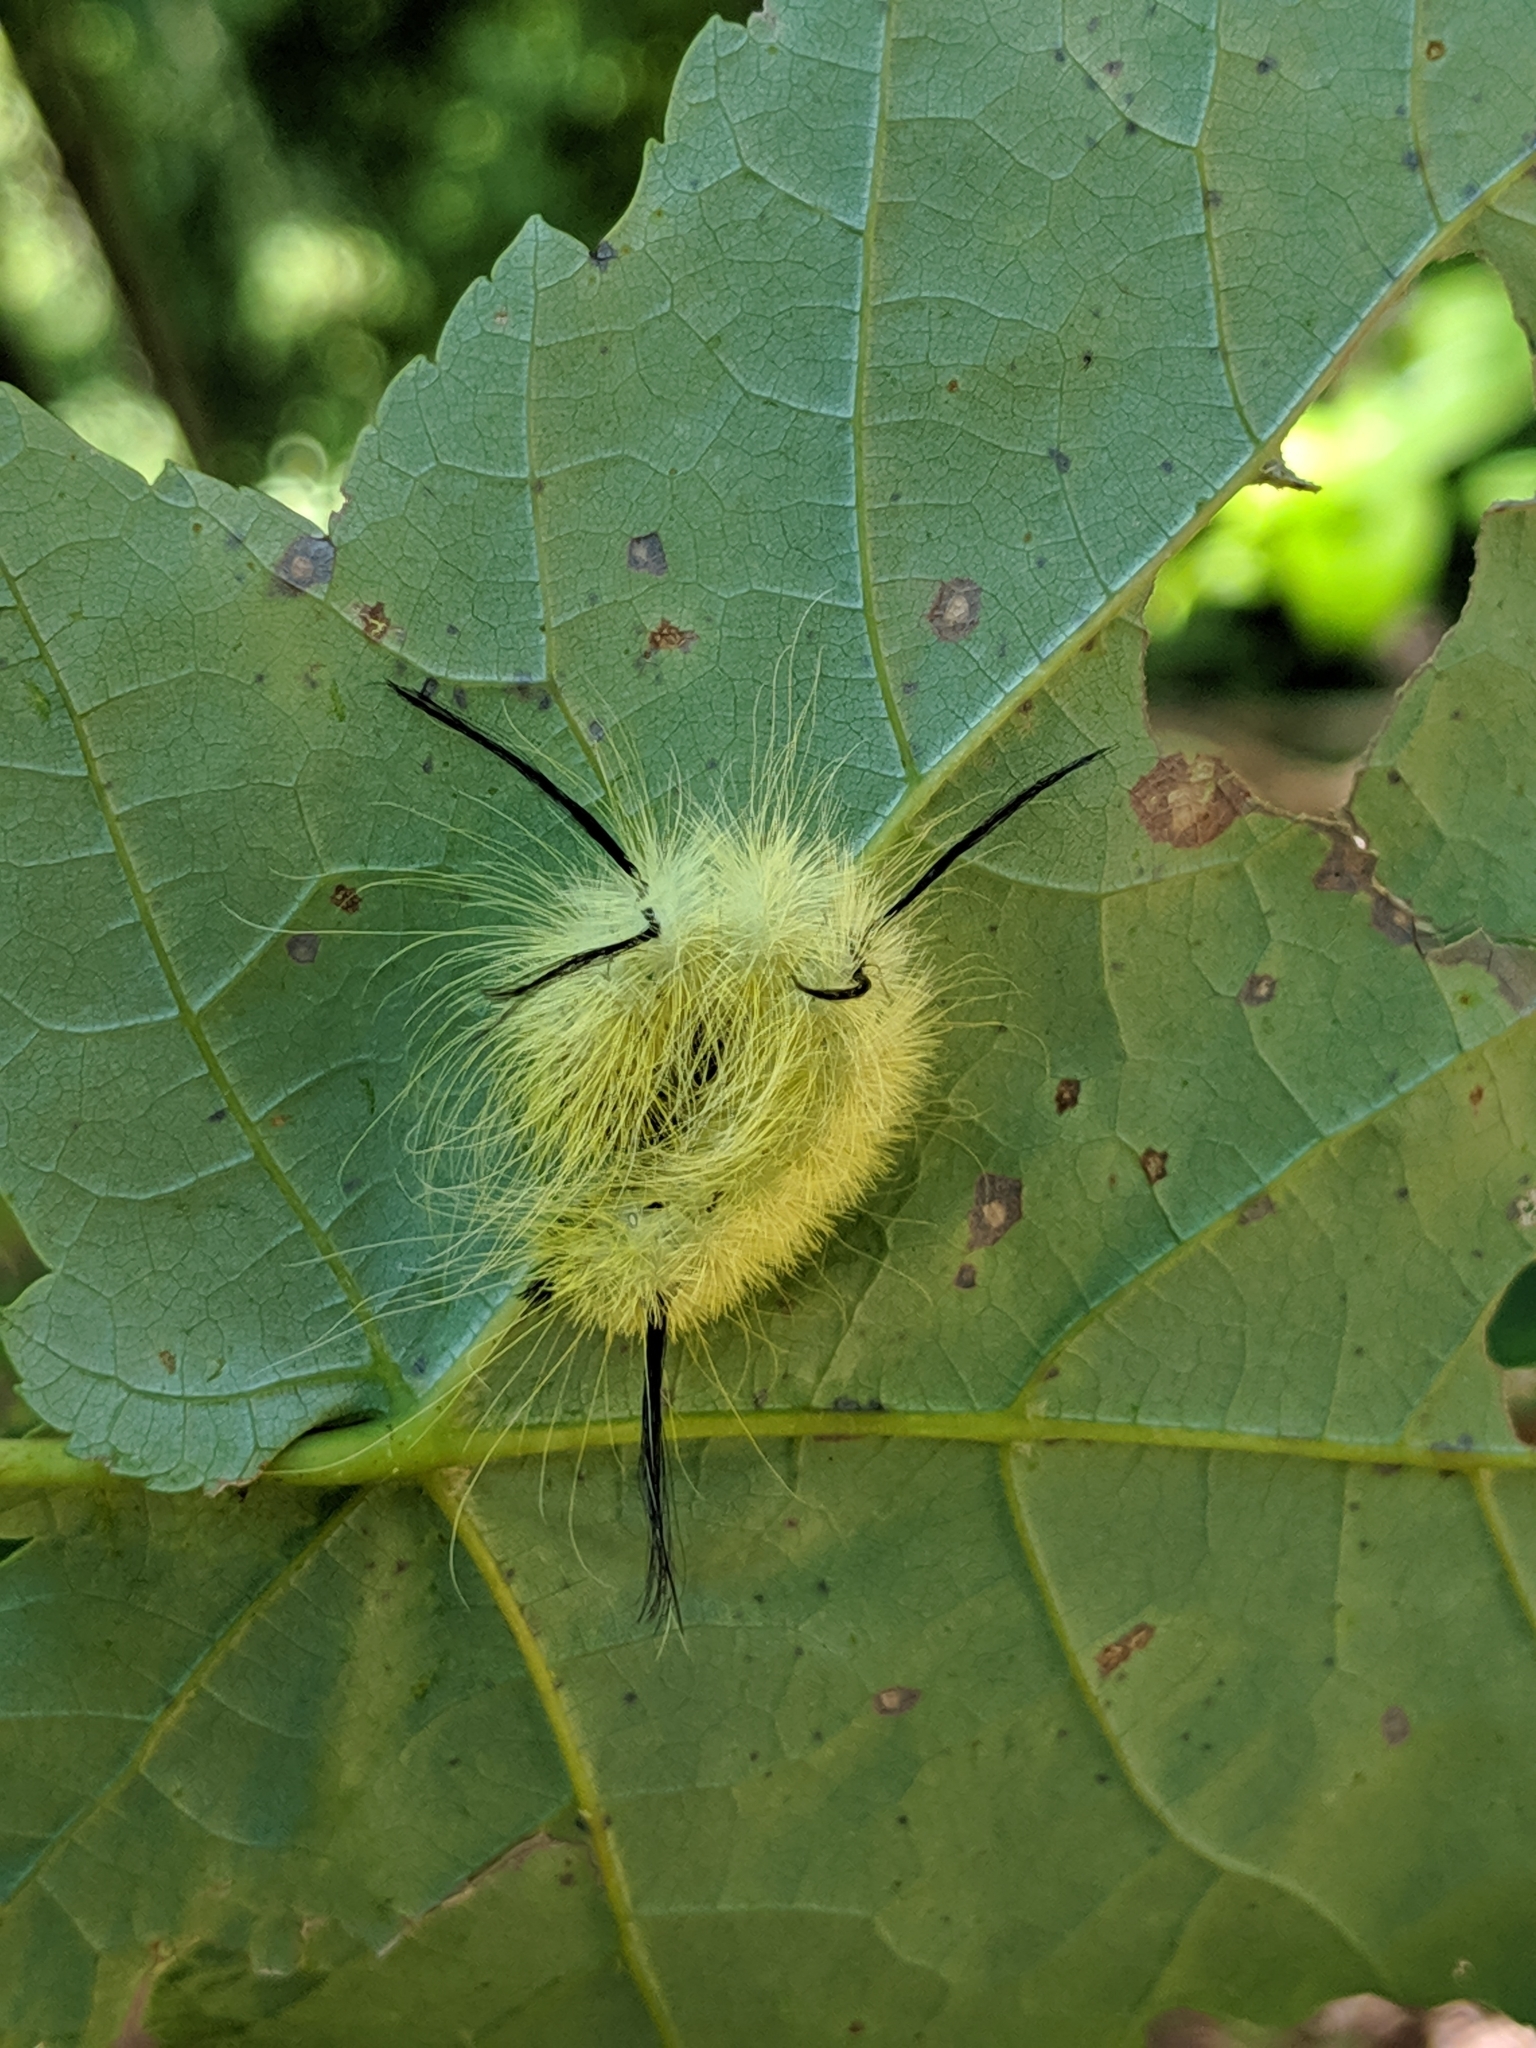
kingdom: Animalia
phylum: Arthropoda
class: Insecta
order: Lepidoptera
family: Noctuidae
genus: Acronicta
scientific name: Acronicta americana
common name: American dagger
